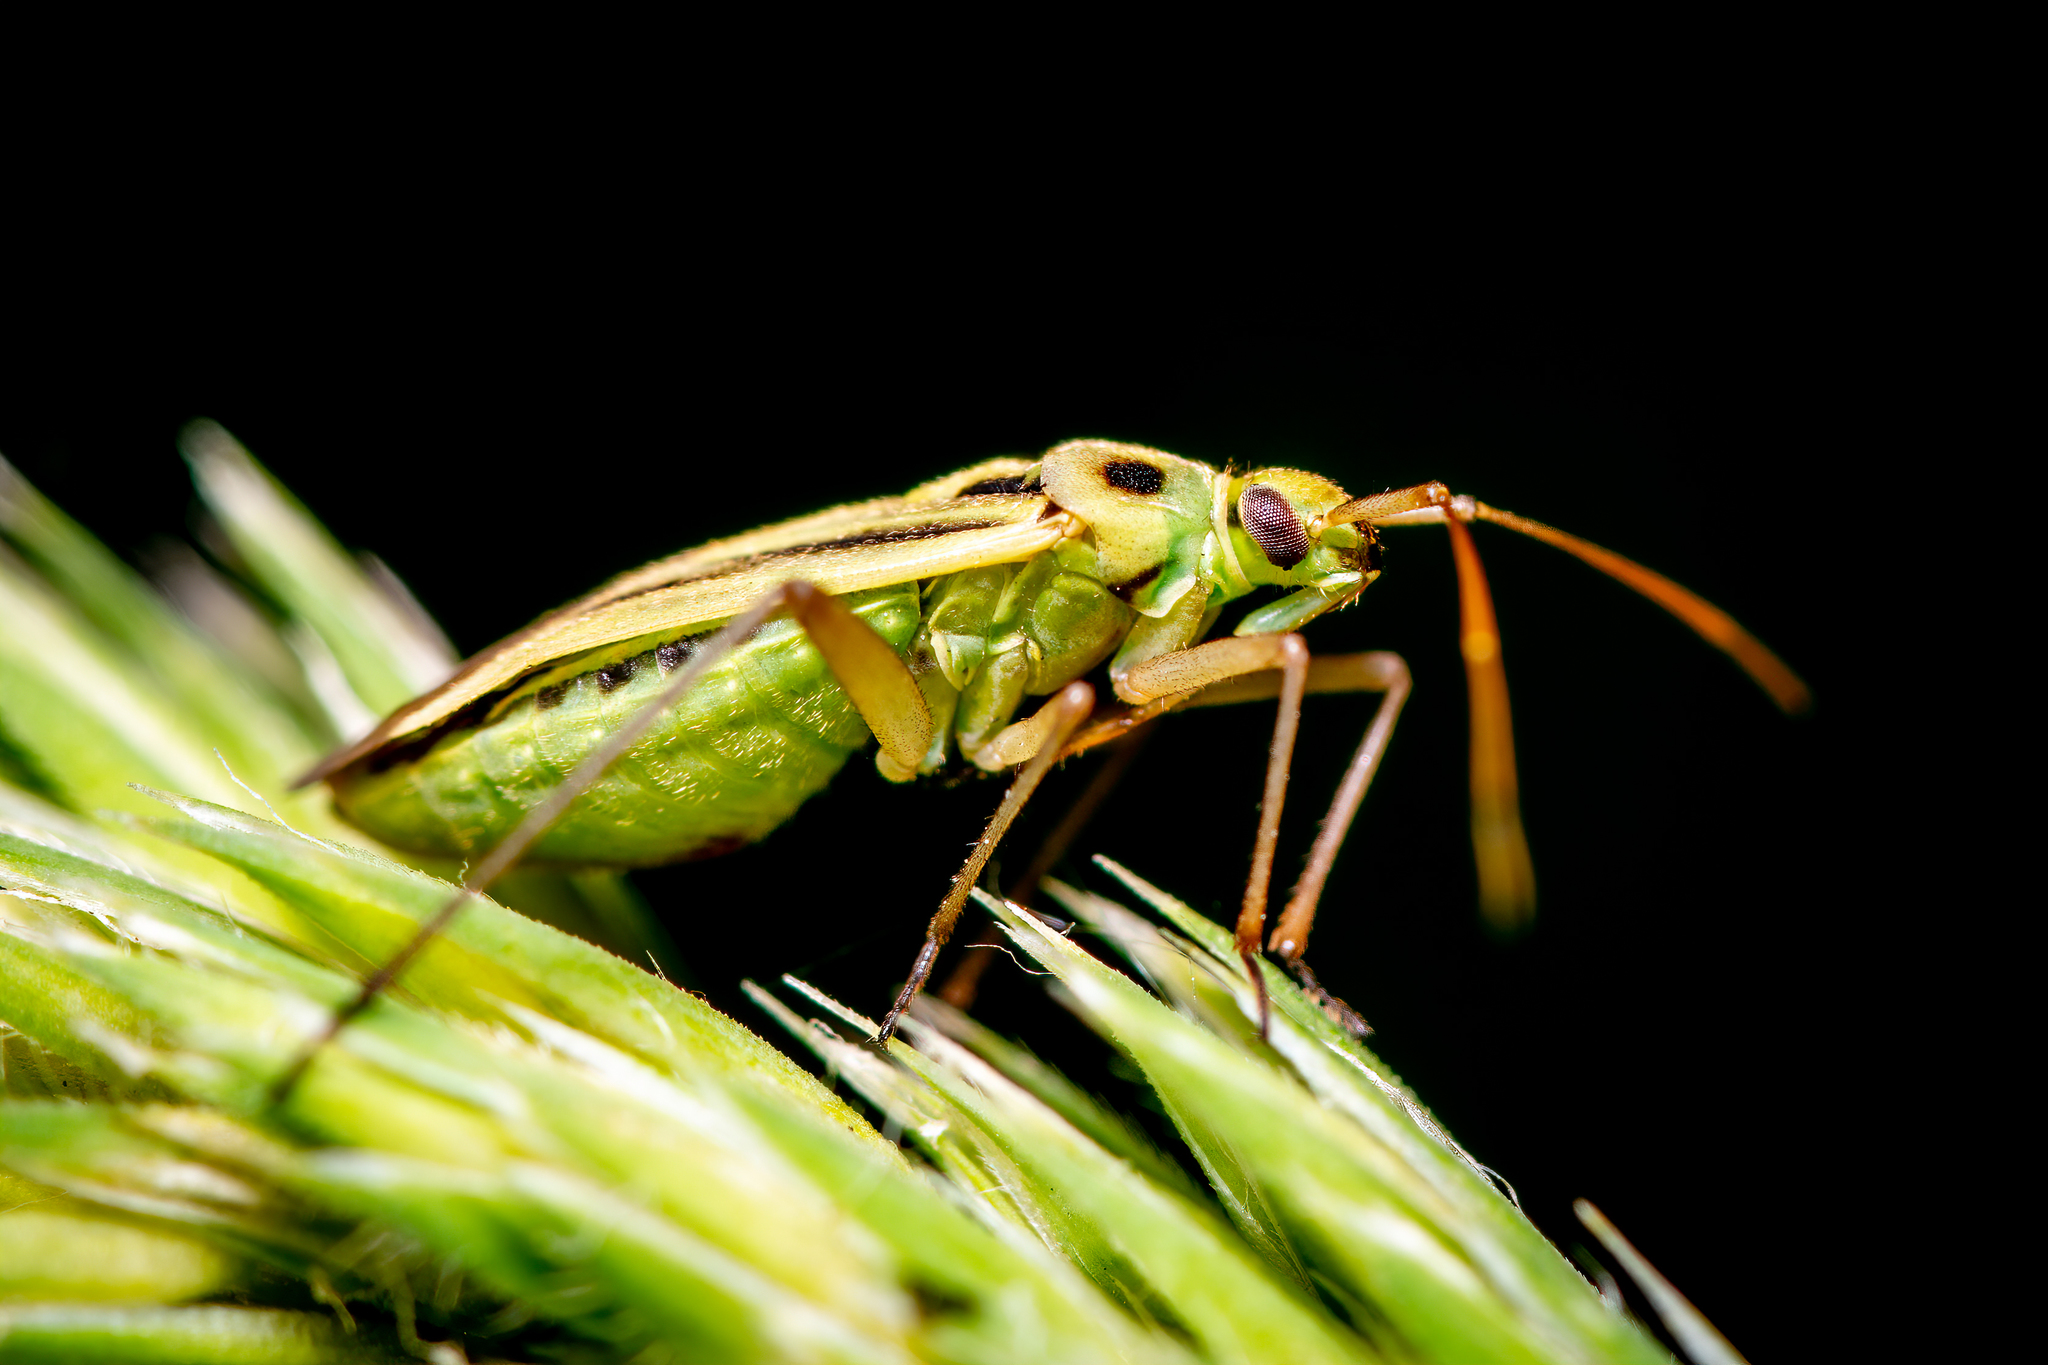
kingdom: Animalia
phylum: Arthropoda
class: Insecta
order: Hemiptera
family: Miridae
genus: Stenotus
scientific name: Stenotus binotatus
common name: Plant bug
